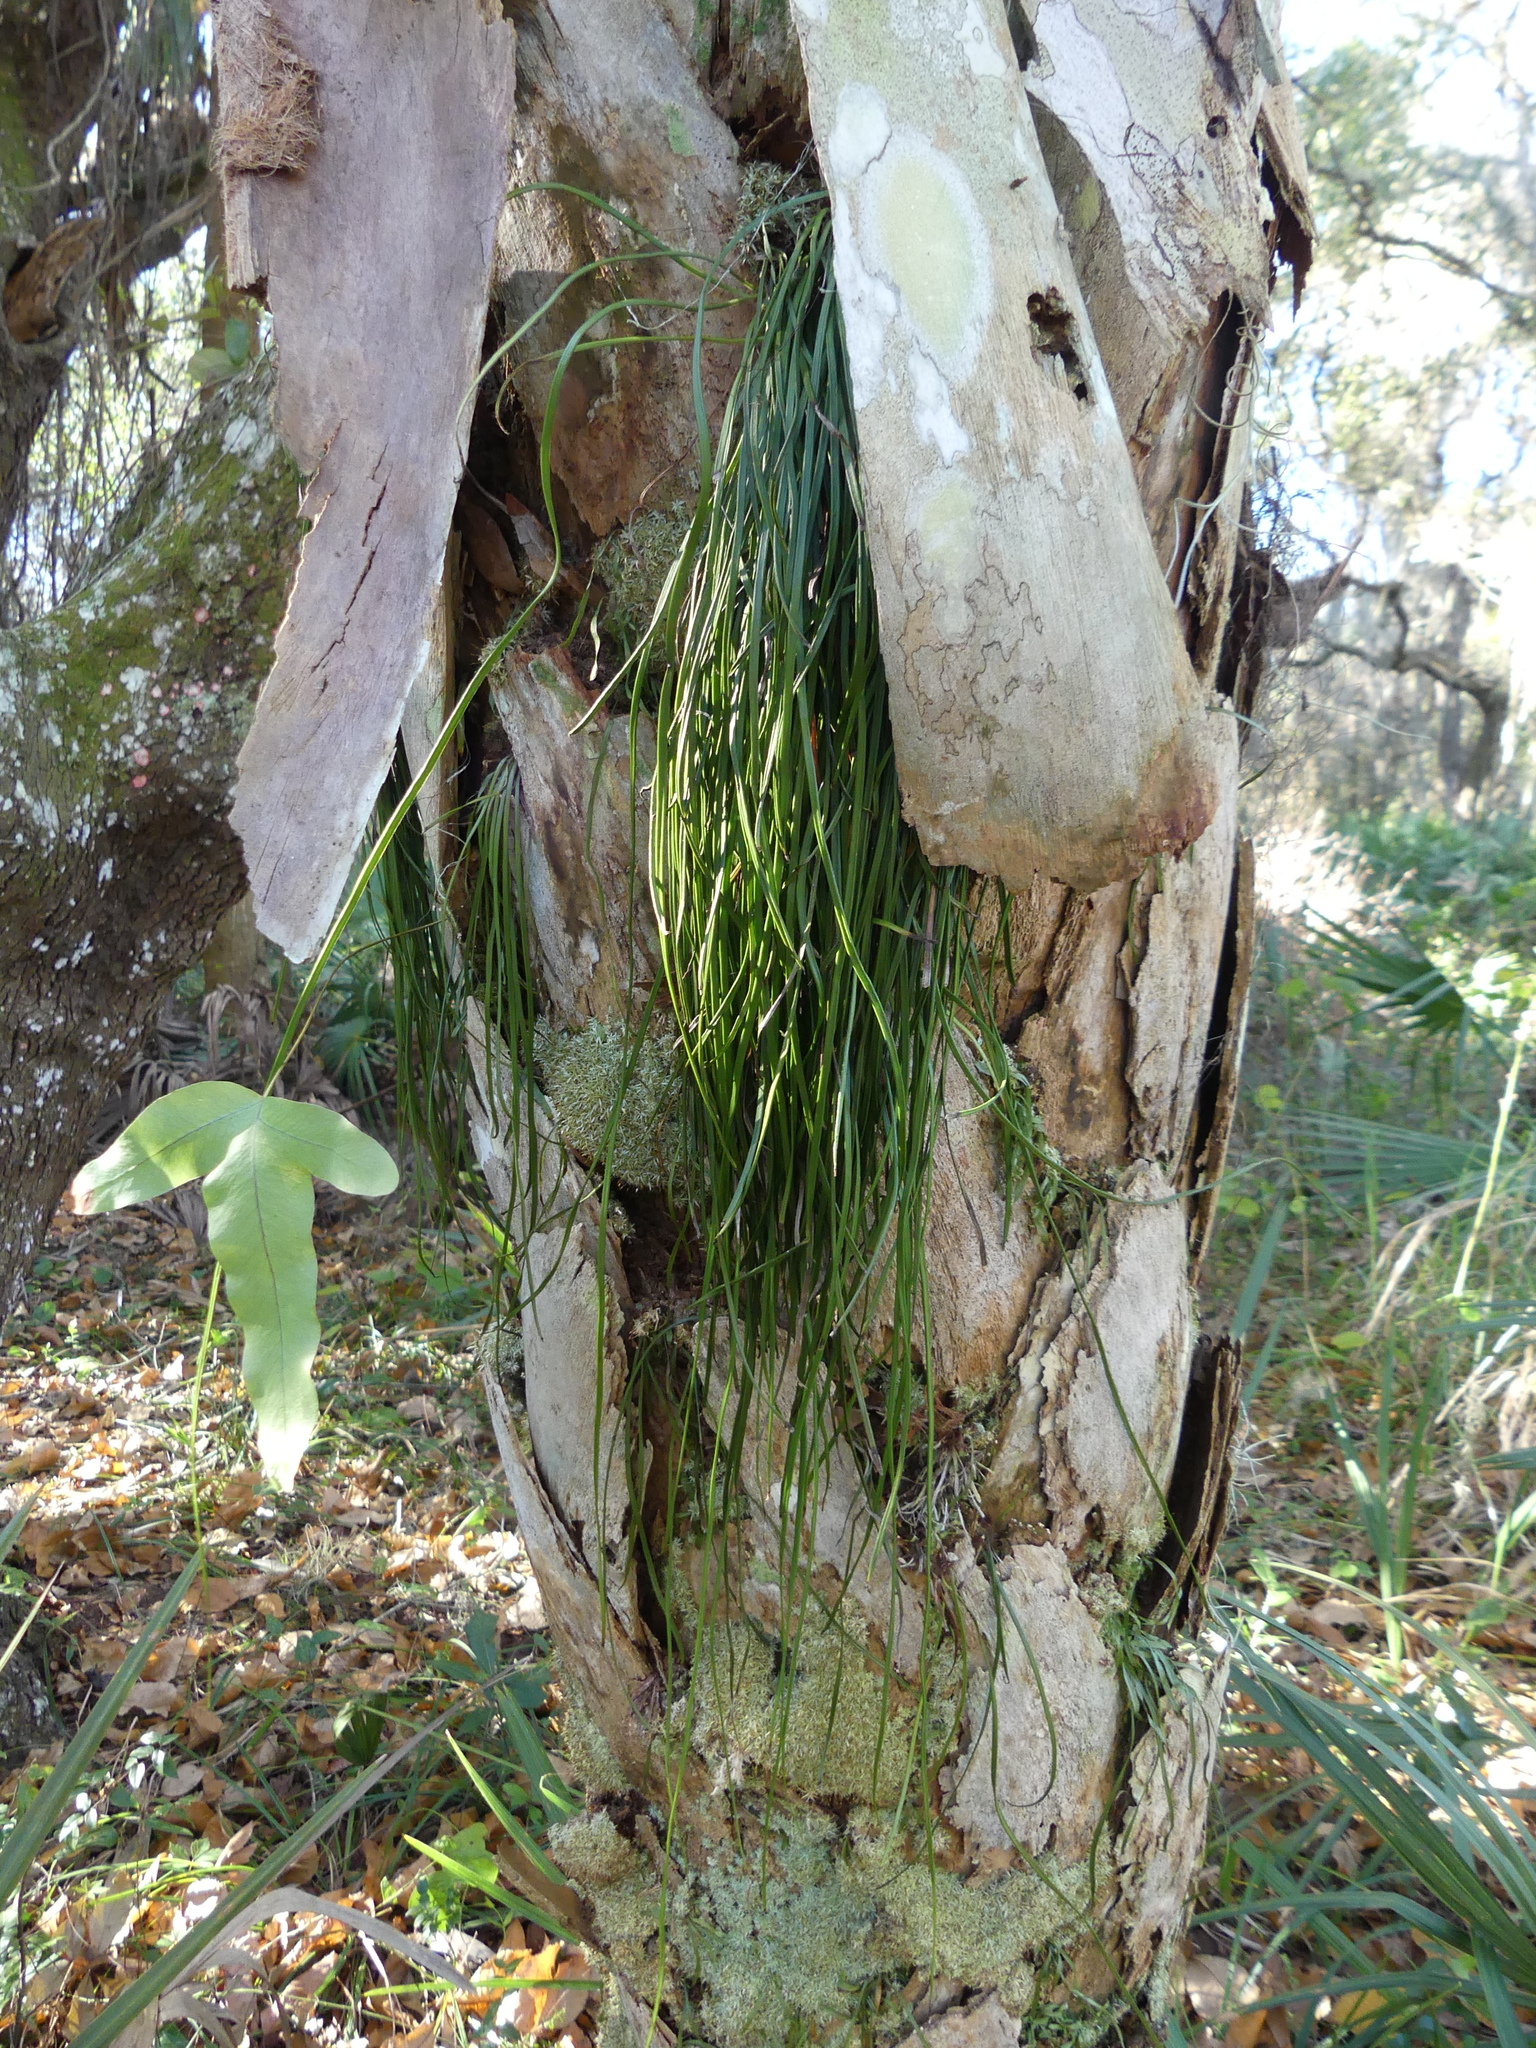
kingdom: Plantae
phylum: Tracheophyta
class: Polypodiopsida
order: Polypodiales
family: Pteridaceae
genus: Vittaria
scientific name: Vittaria lineata
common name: Shoestring fern
